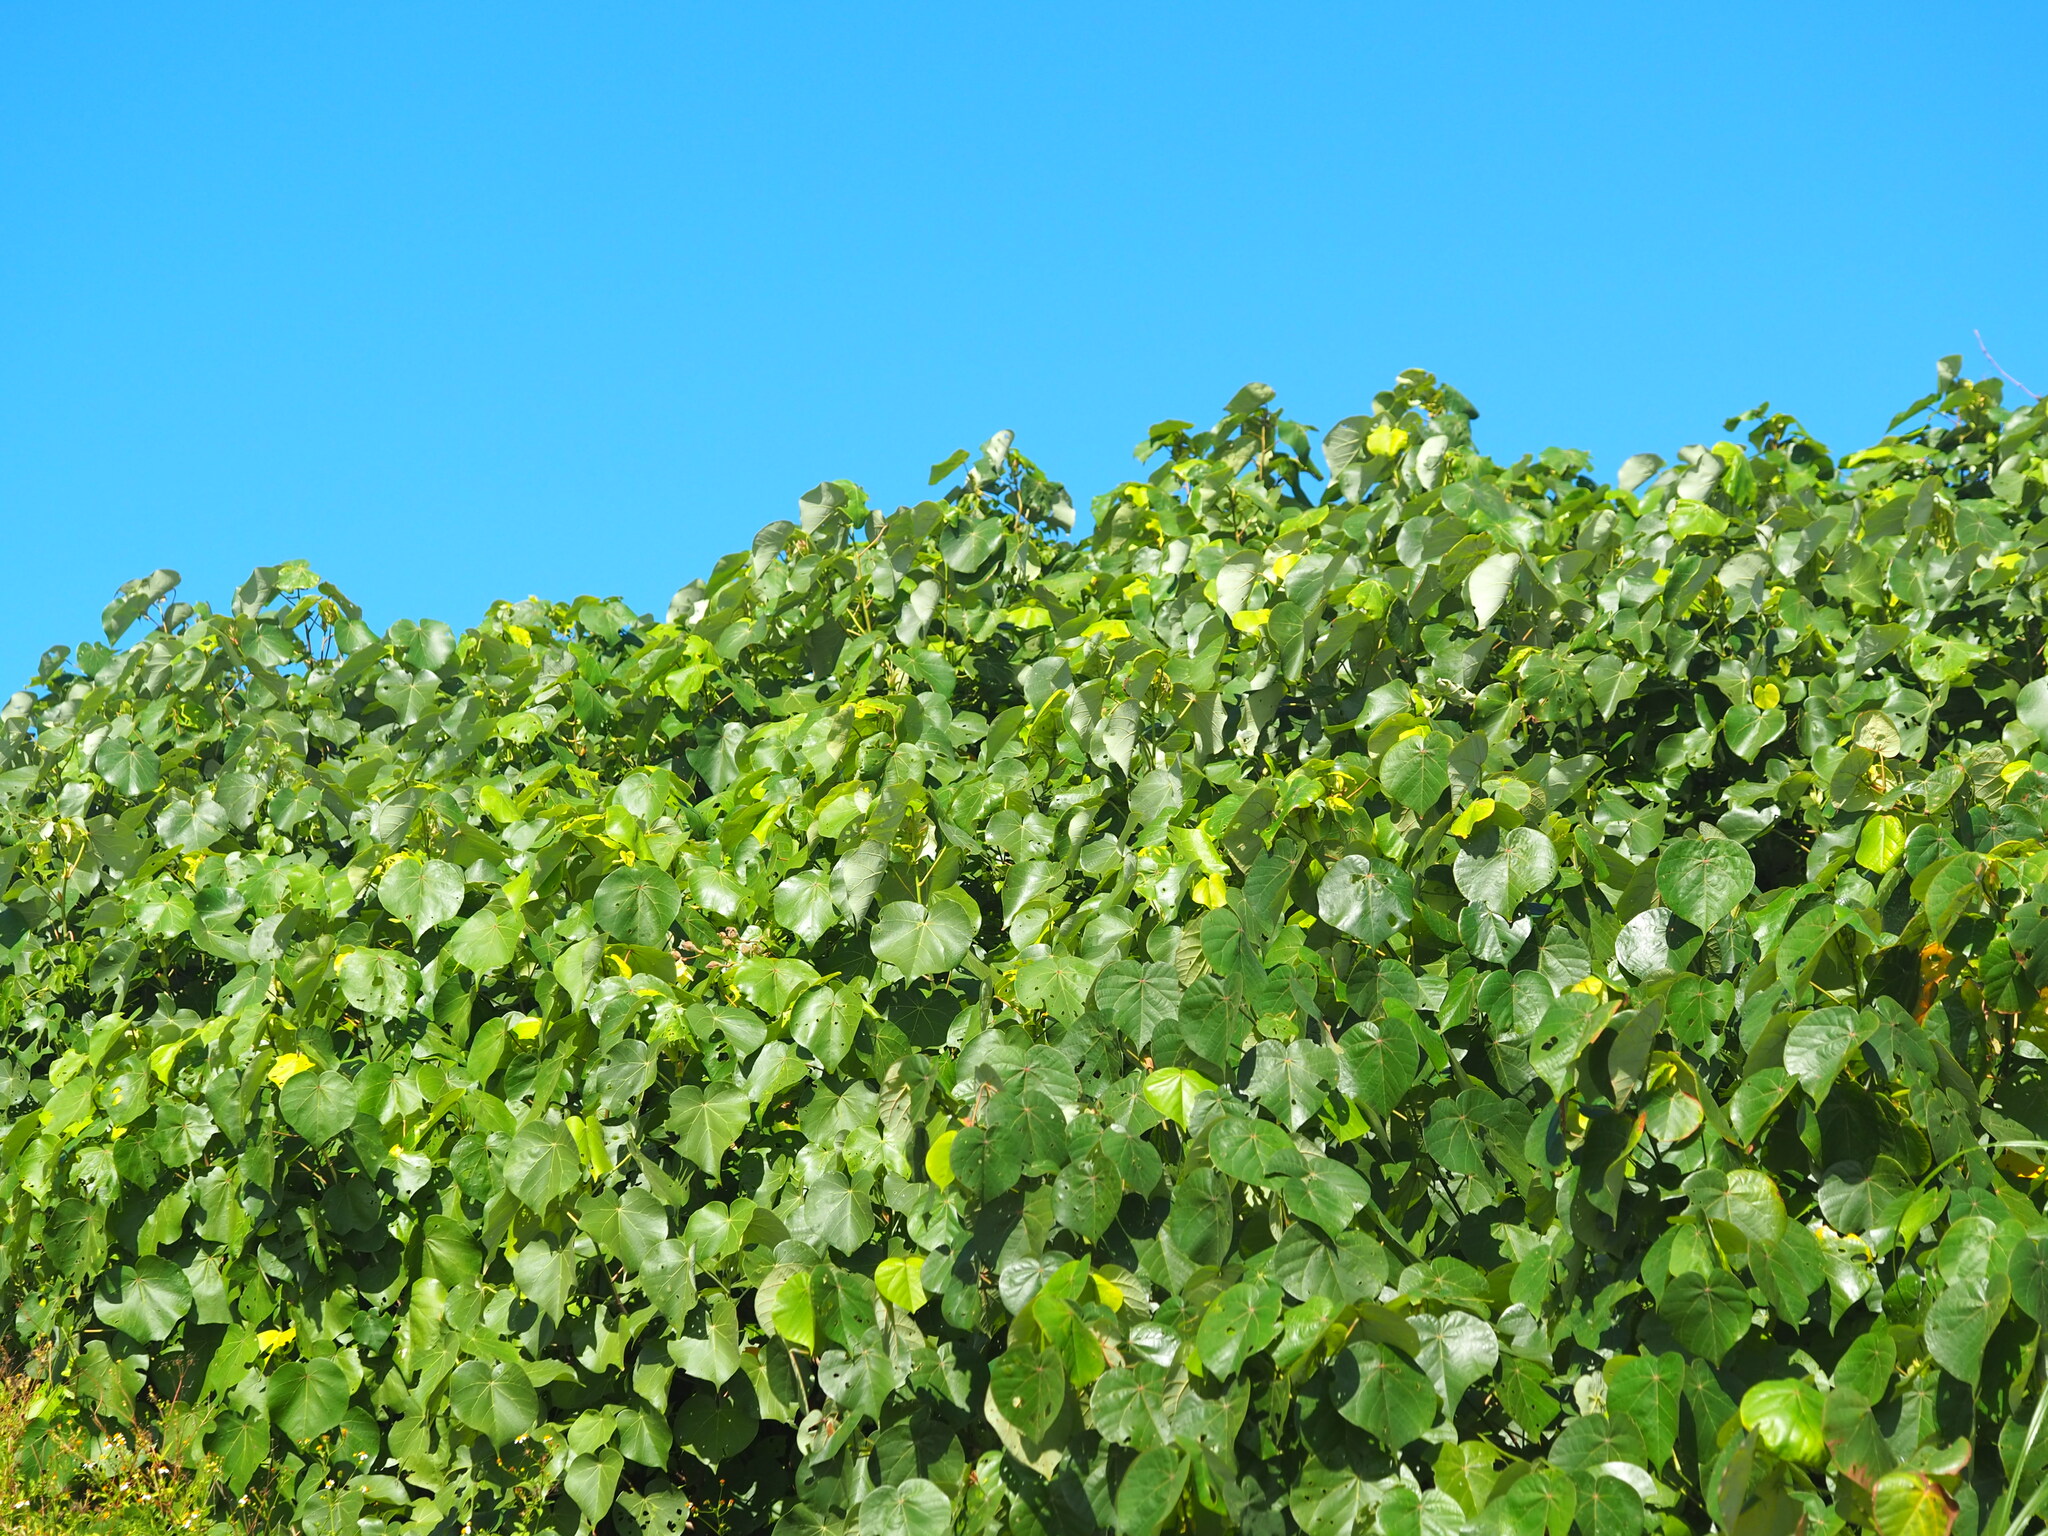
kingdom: Plantae
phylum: Tracheophyta
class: Magnoliopsida
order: Malvales
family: Malvaceae
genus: Talipariti
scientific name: Talipariti tiliaceum
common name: Sea hibiscus
